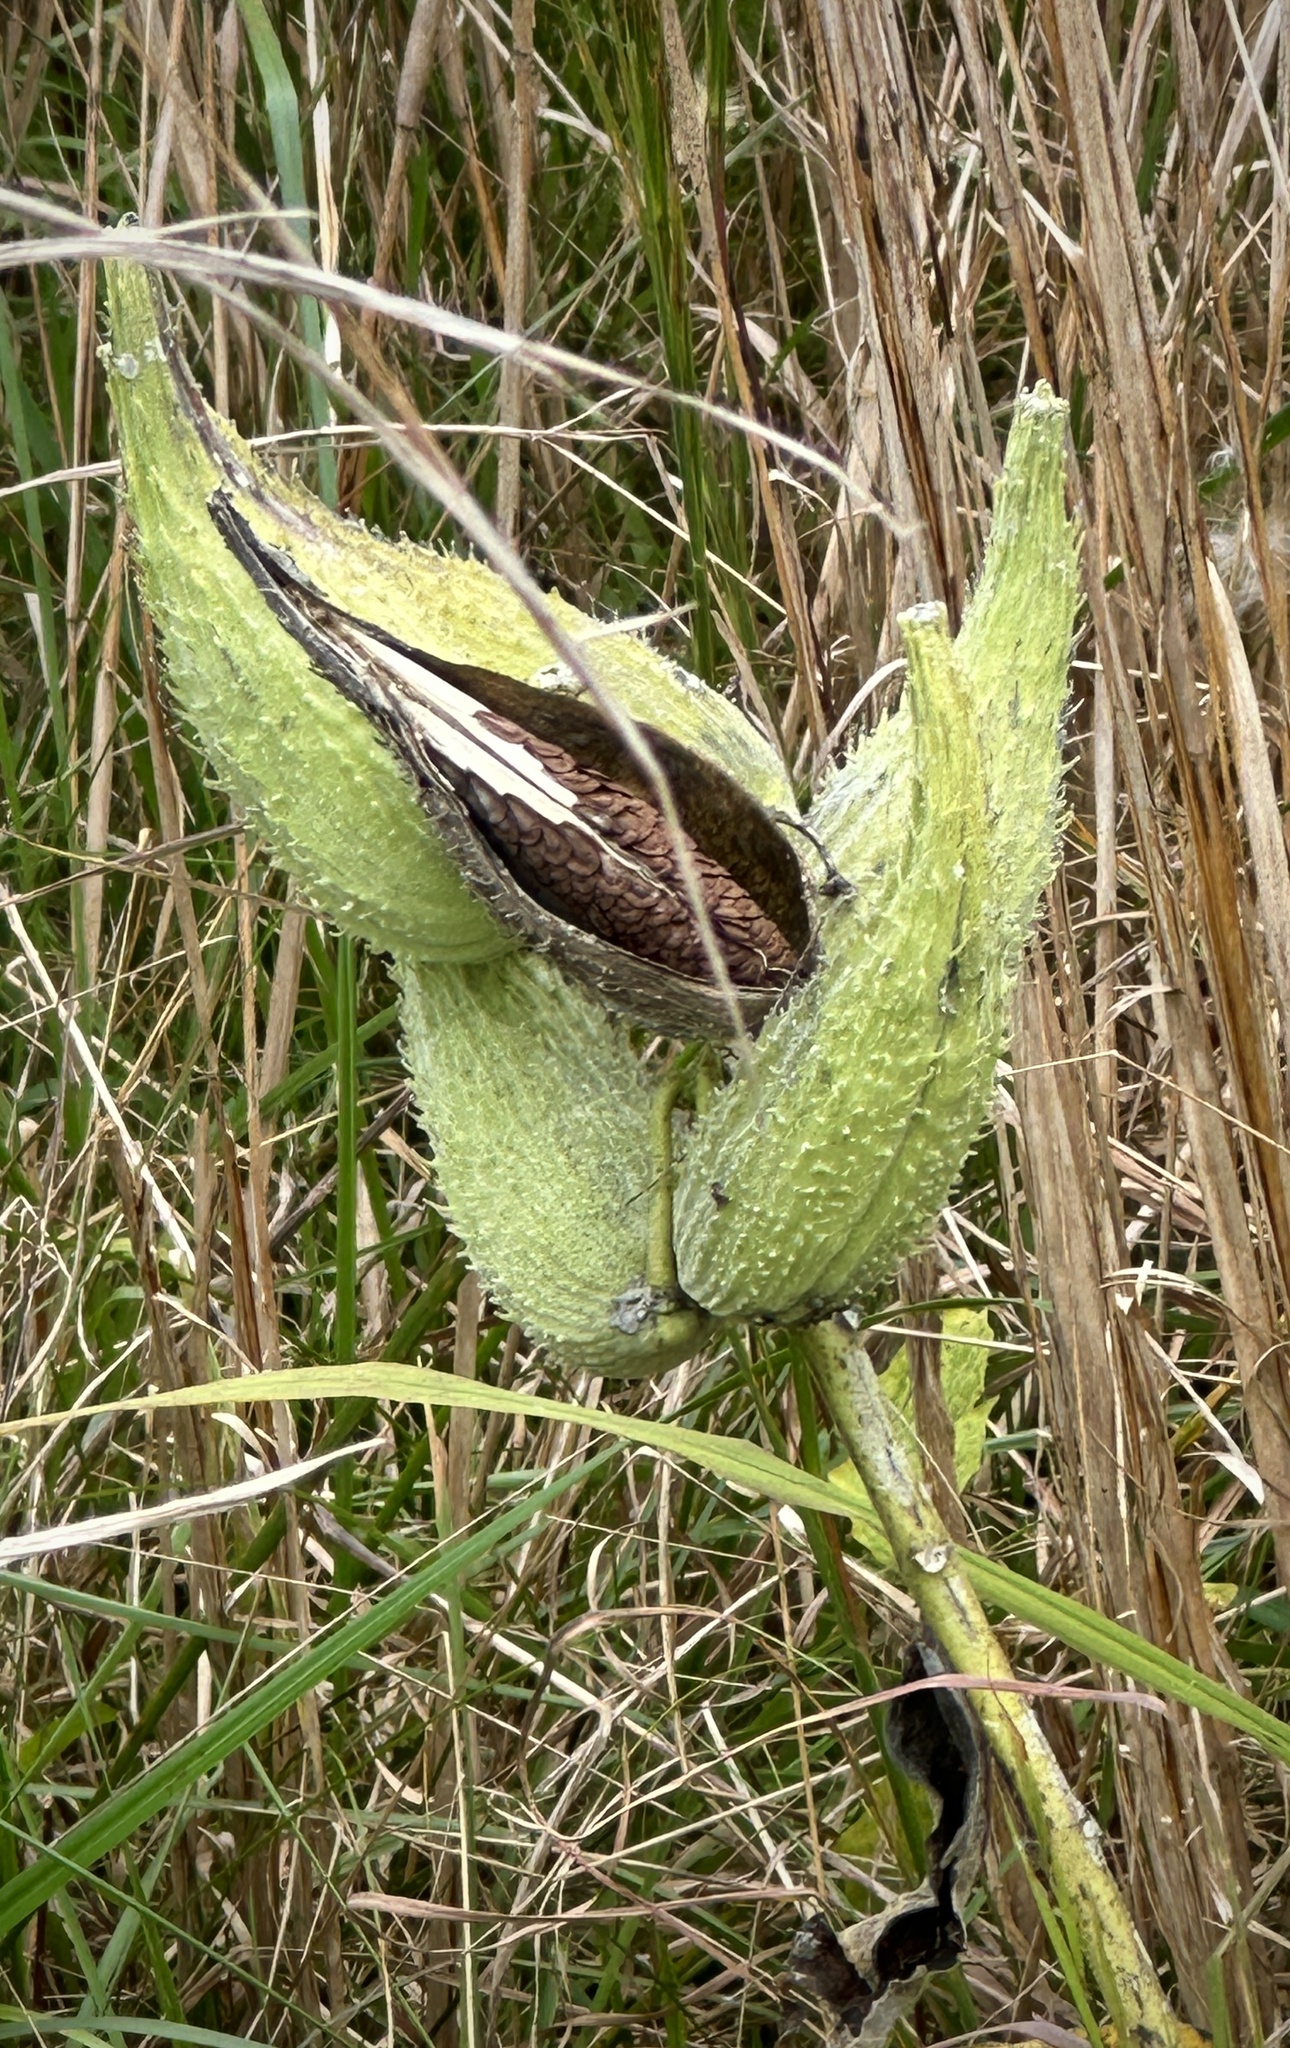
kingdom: Plantae
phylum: Tracheophyta
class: Magnoliopsida
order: Gentianales
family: Apocynaceae
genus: Asclepias
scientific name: Asclepias syriaca
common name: Common milkweed
